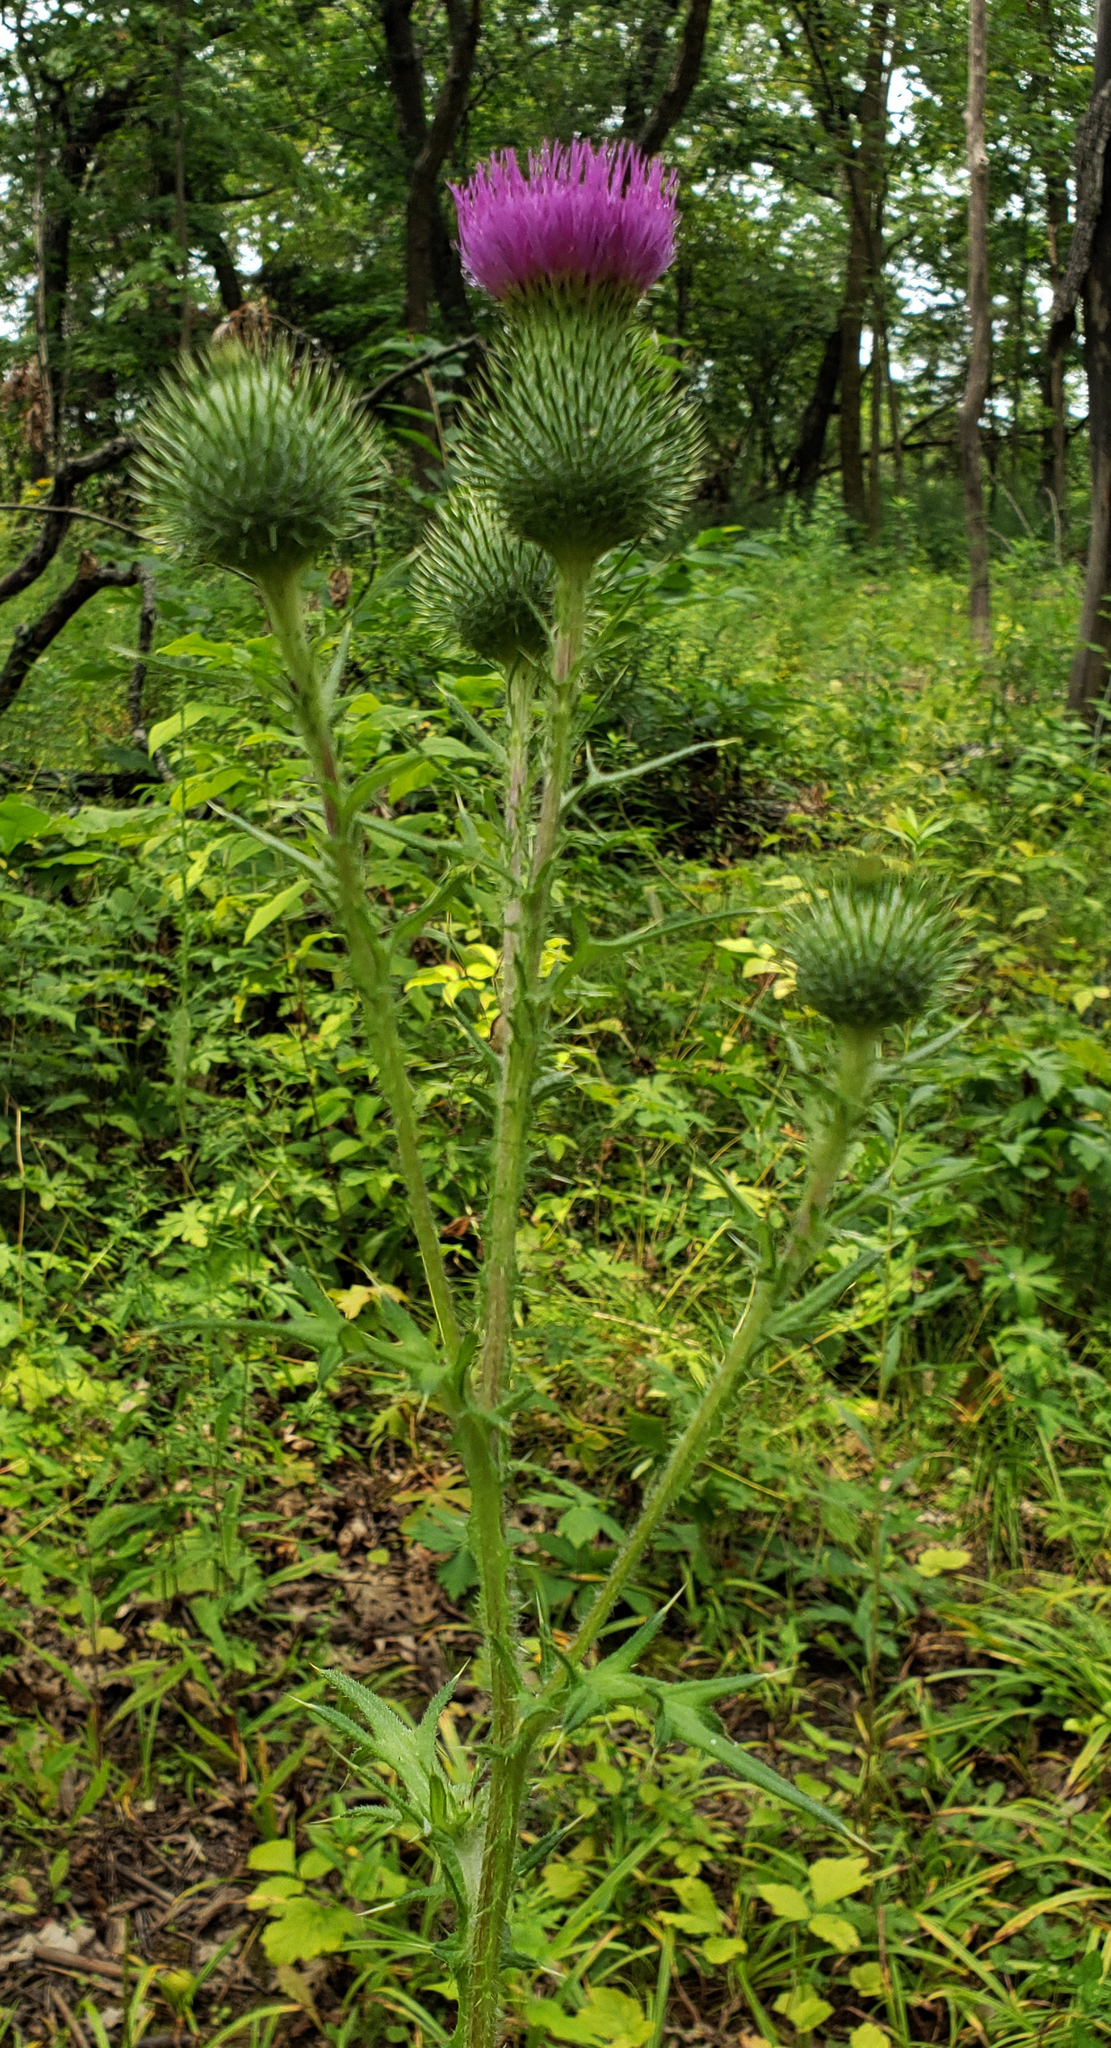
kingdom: Plantae
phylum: Tracheophyta
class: Magnoliopsida
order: Asterales
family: Asteraceae
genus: Cirsium
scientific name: Cirsium vulgare
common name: Bull thistle
